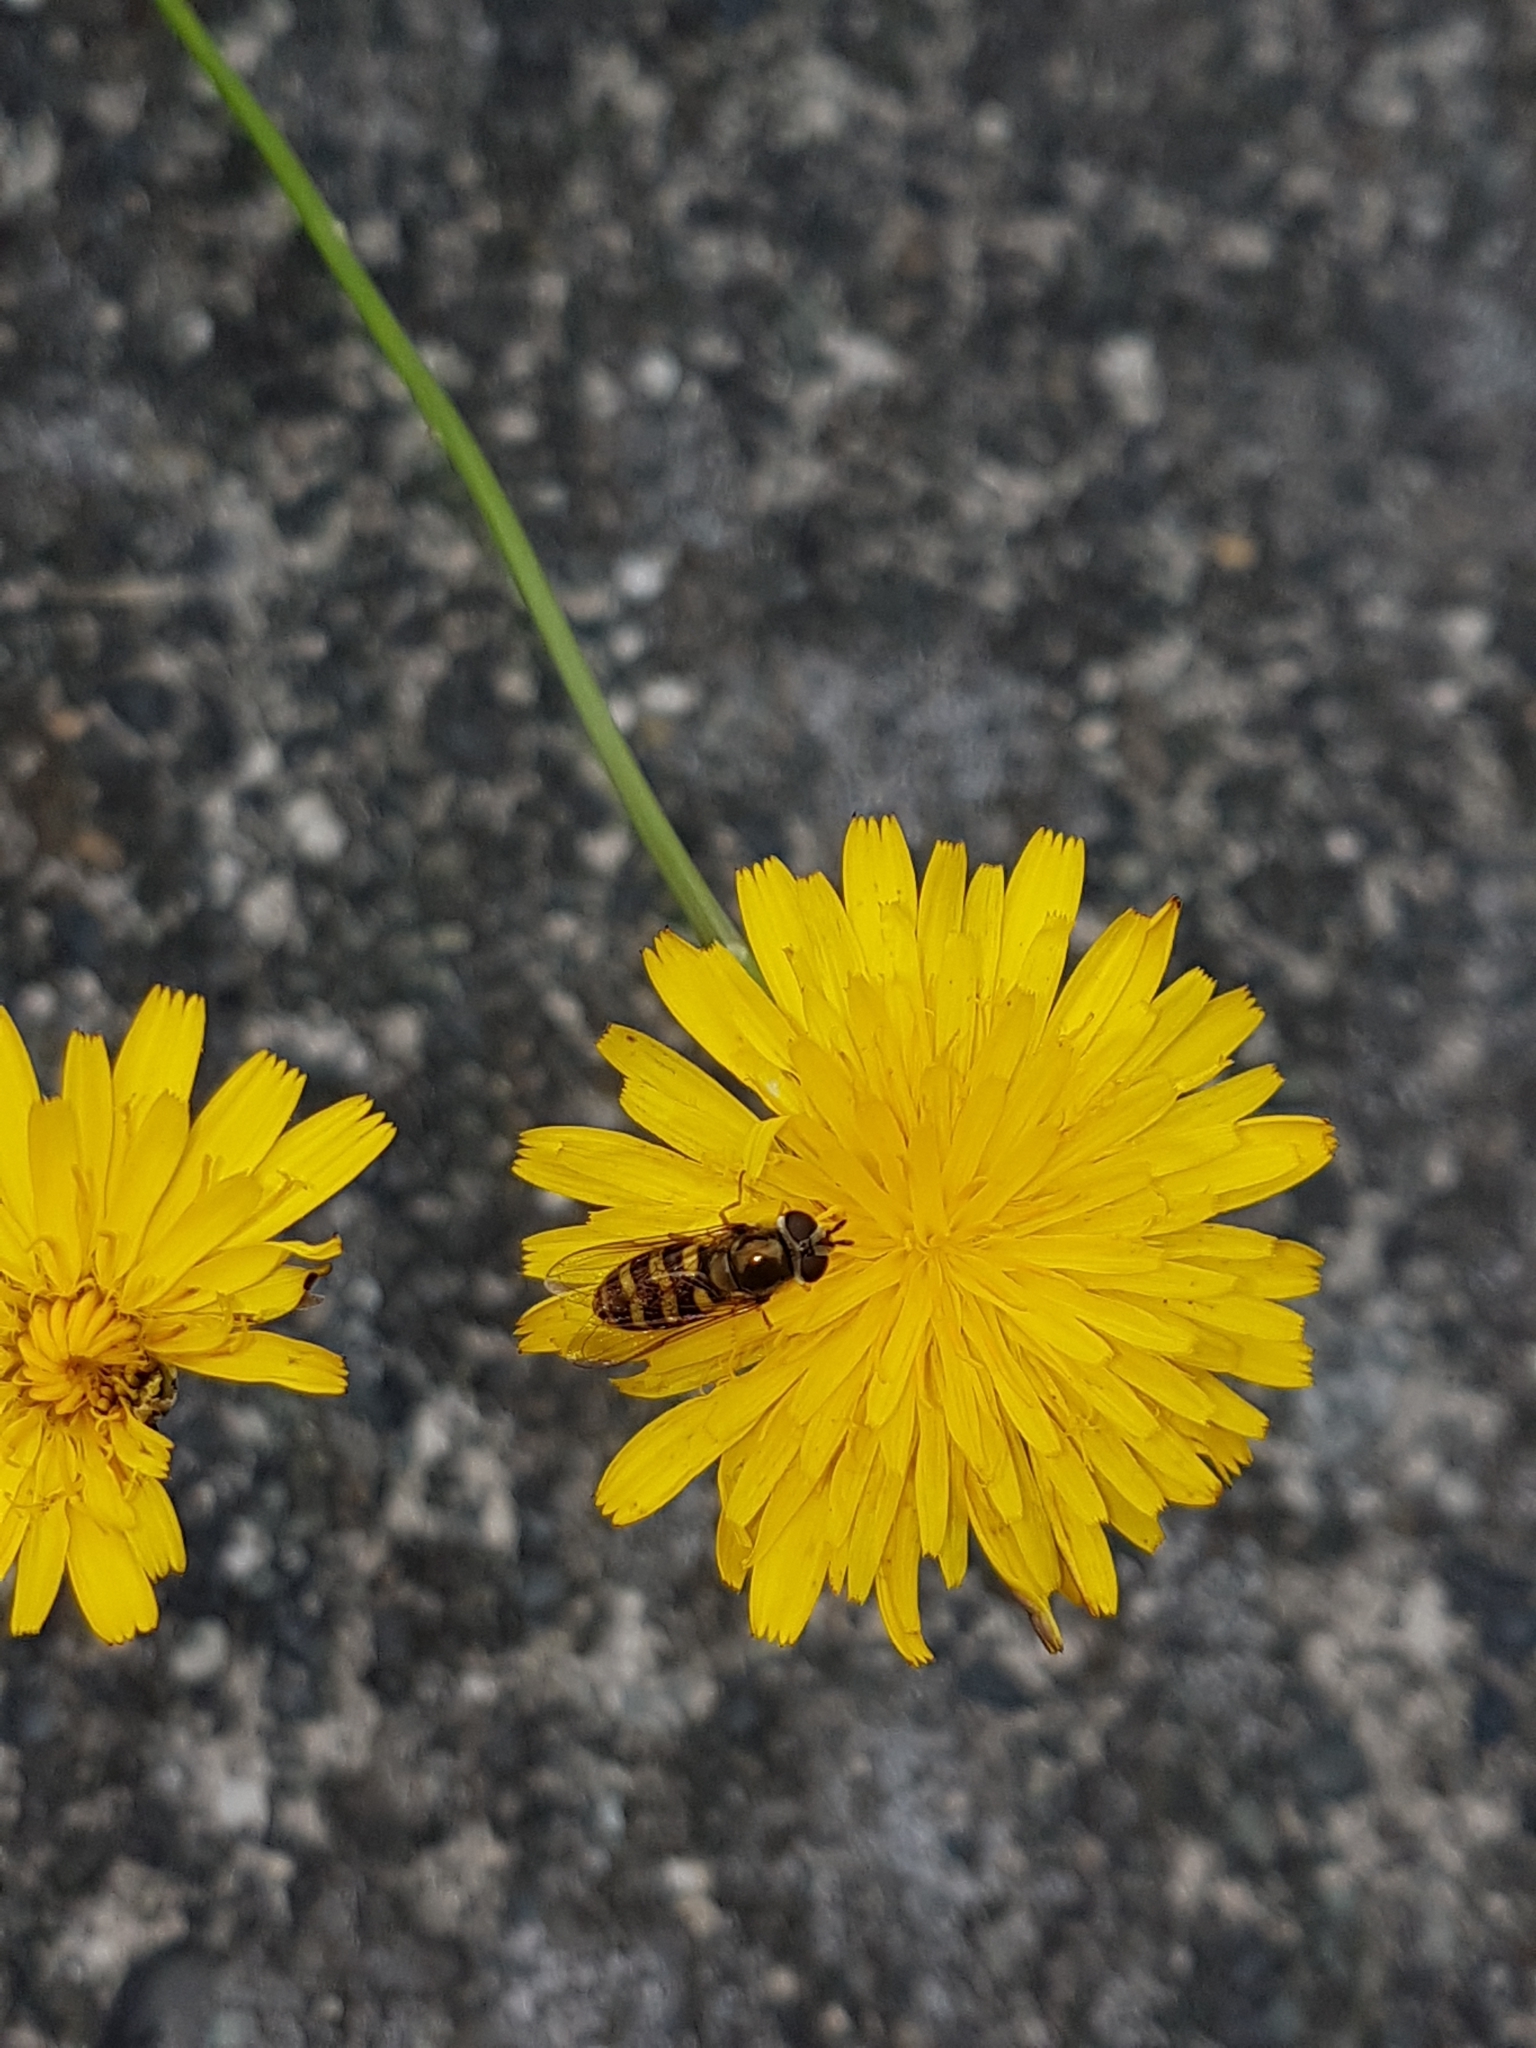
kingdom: Animalia
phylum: Arthropoda
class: Insecta
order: Diptera
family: Syrphidae
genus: Eupeodes
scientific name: Eupeodes fumipennis
